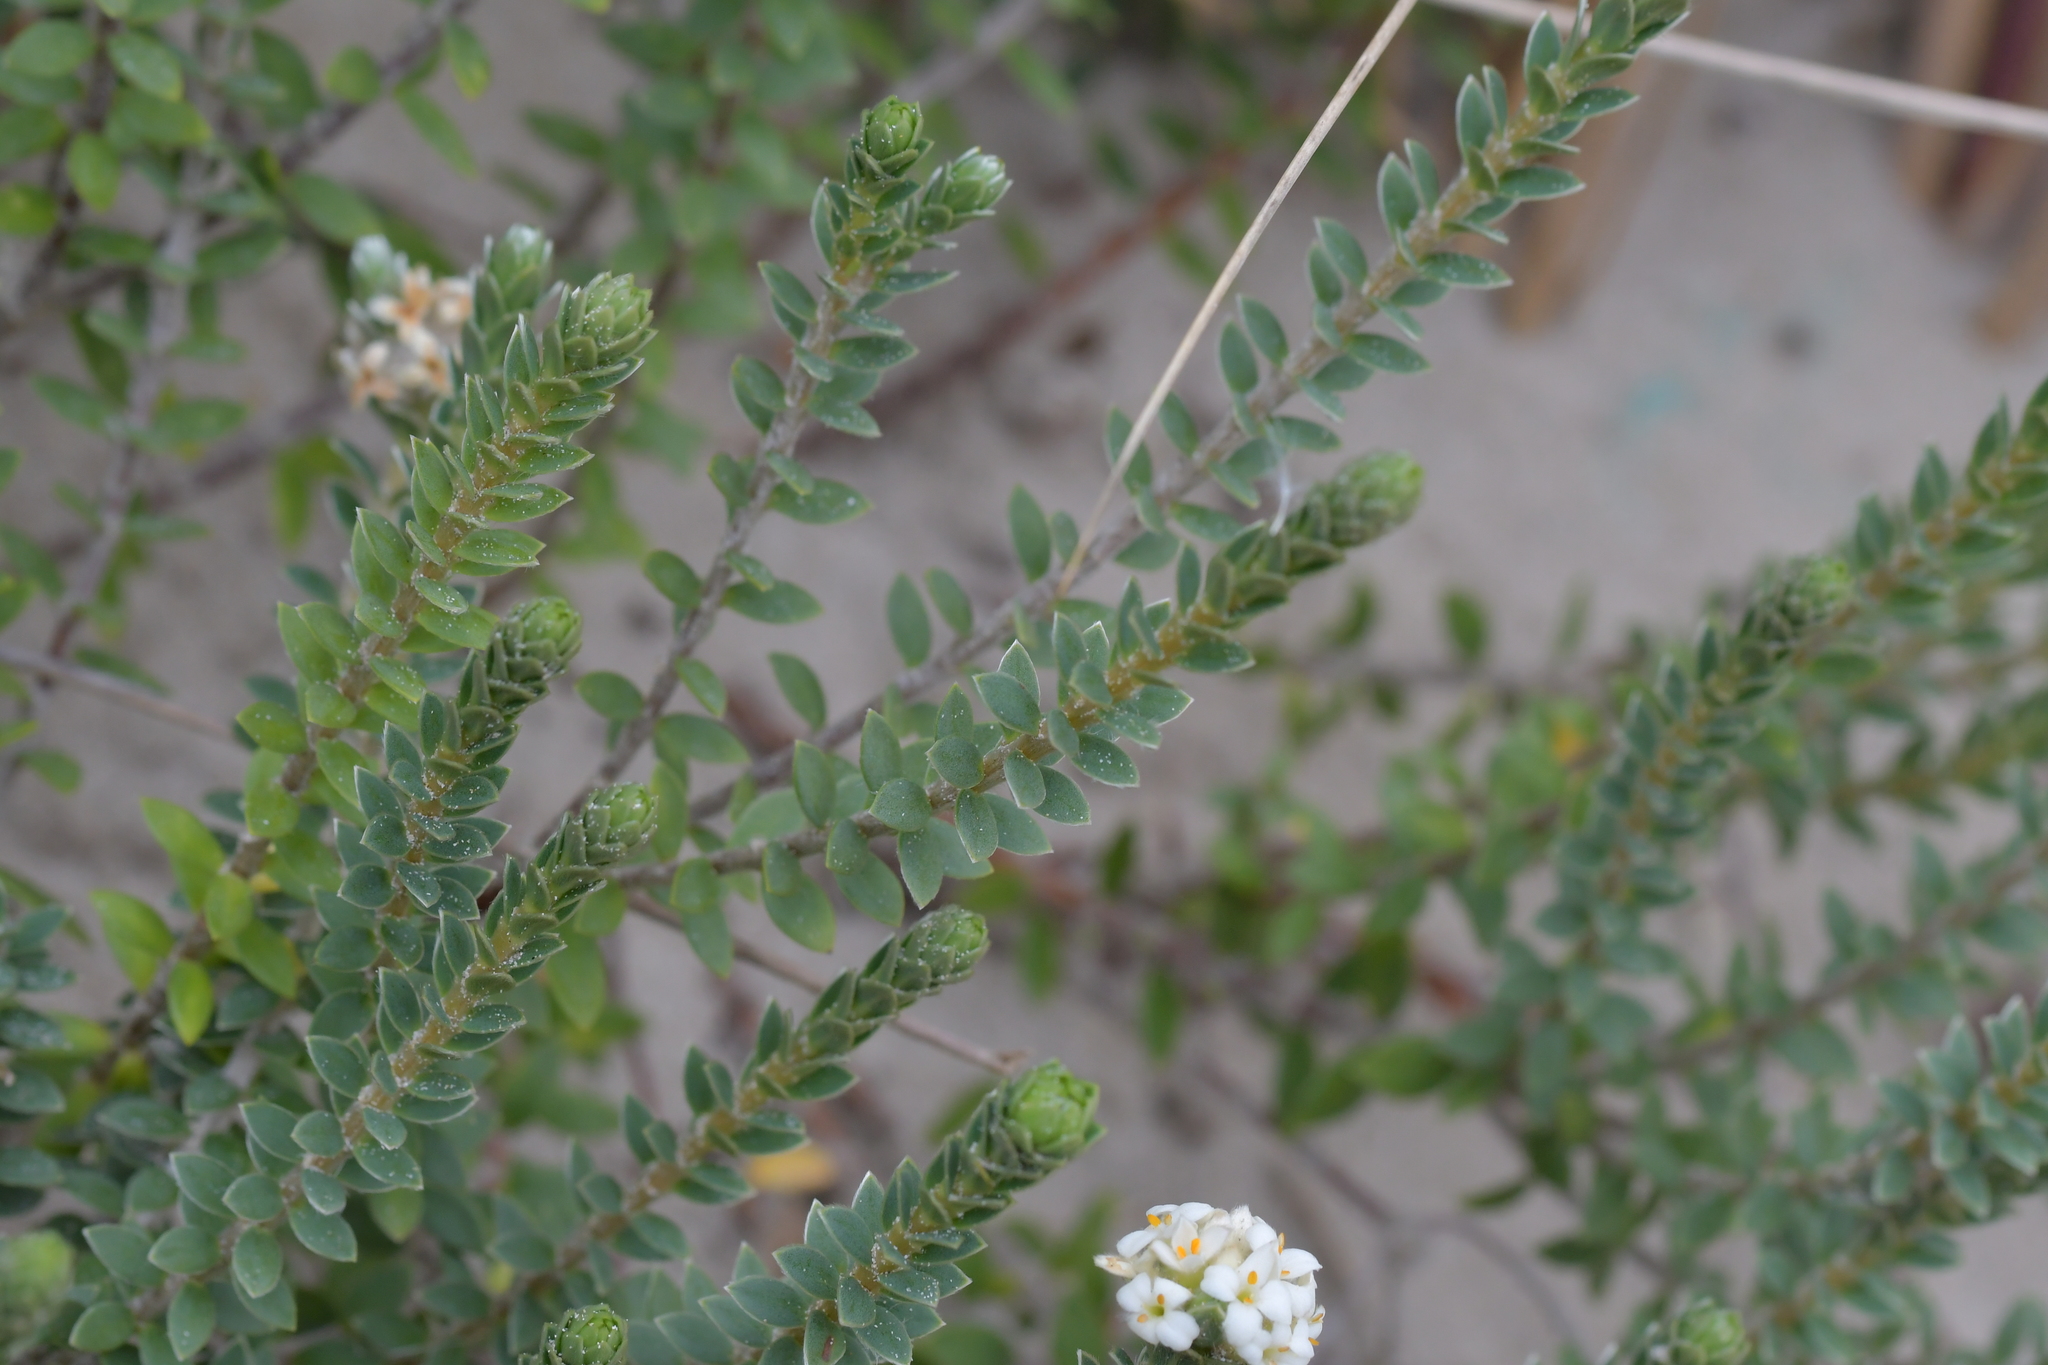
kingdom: Plantae
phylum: Tracheophyta
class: Magnoliopsida
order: Malvales
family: Thymelaeaceae
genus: Pimelea
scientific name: Pimelea villosa
